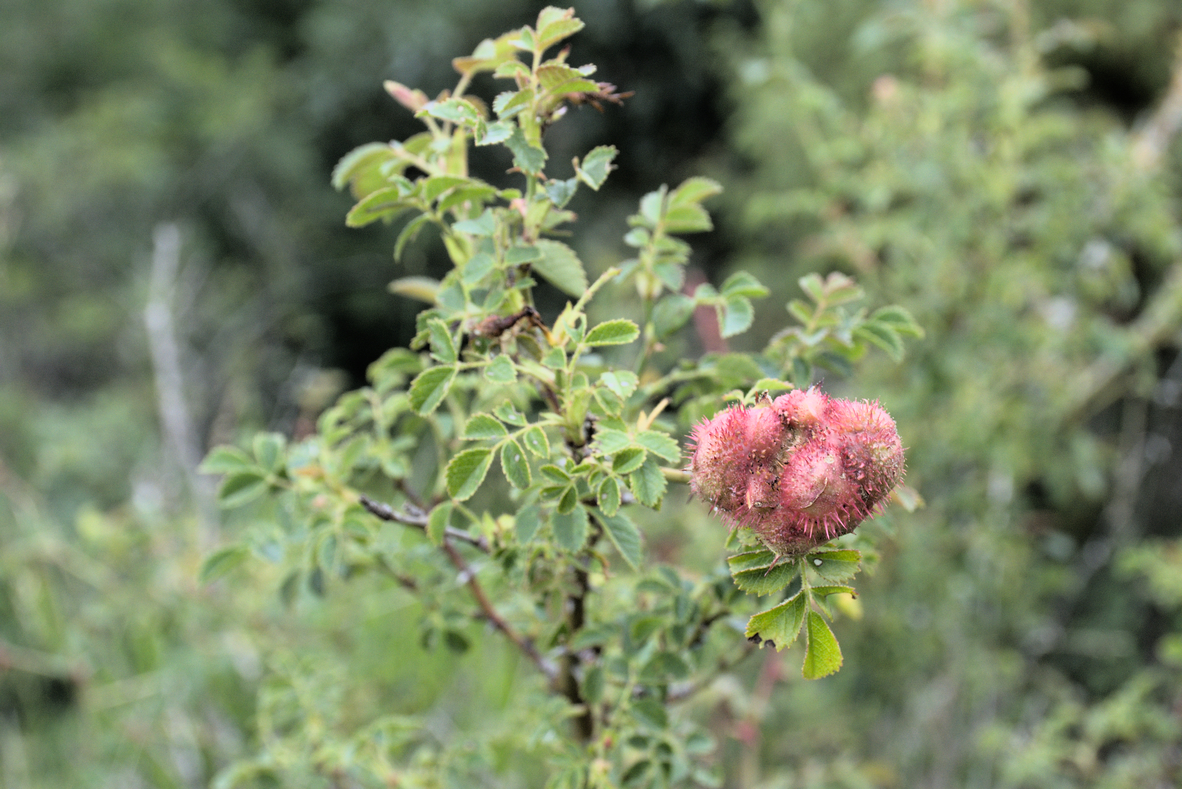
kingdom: Animalia
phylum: Arthropoda
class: Insecta
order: Hymenoptera
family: Cynipidae
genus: Diplolepis
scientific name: Diplolepis mayri
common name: Gall wasp
